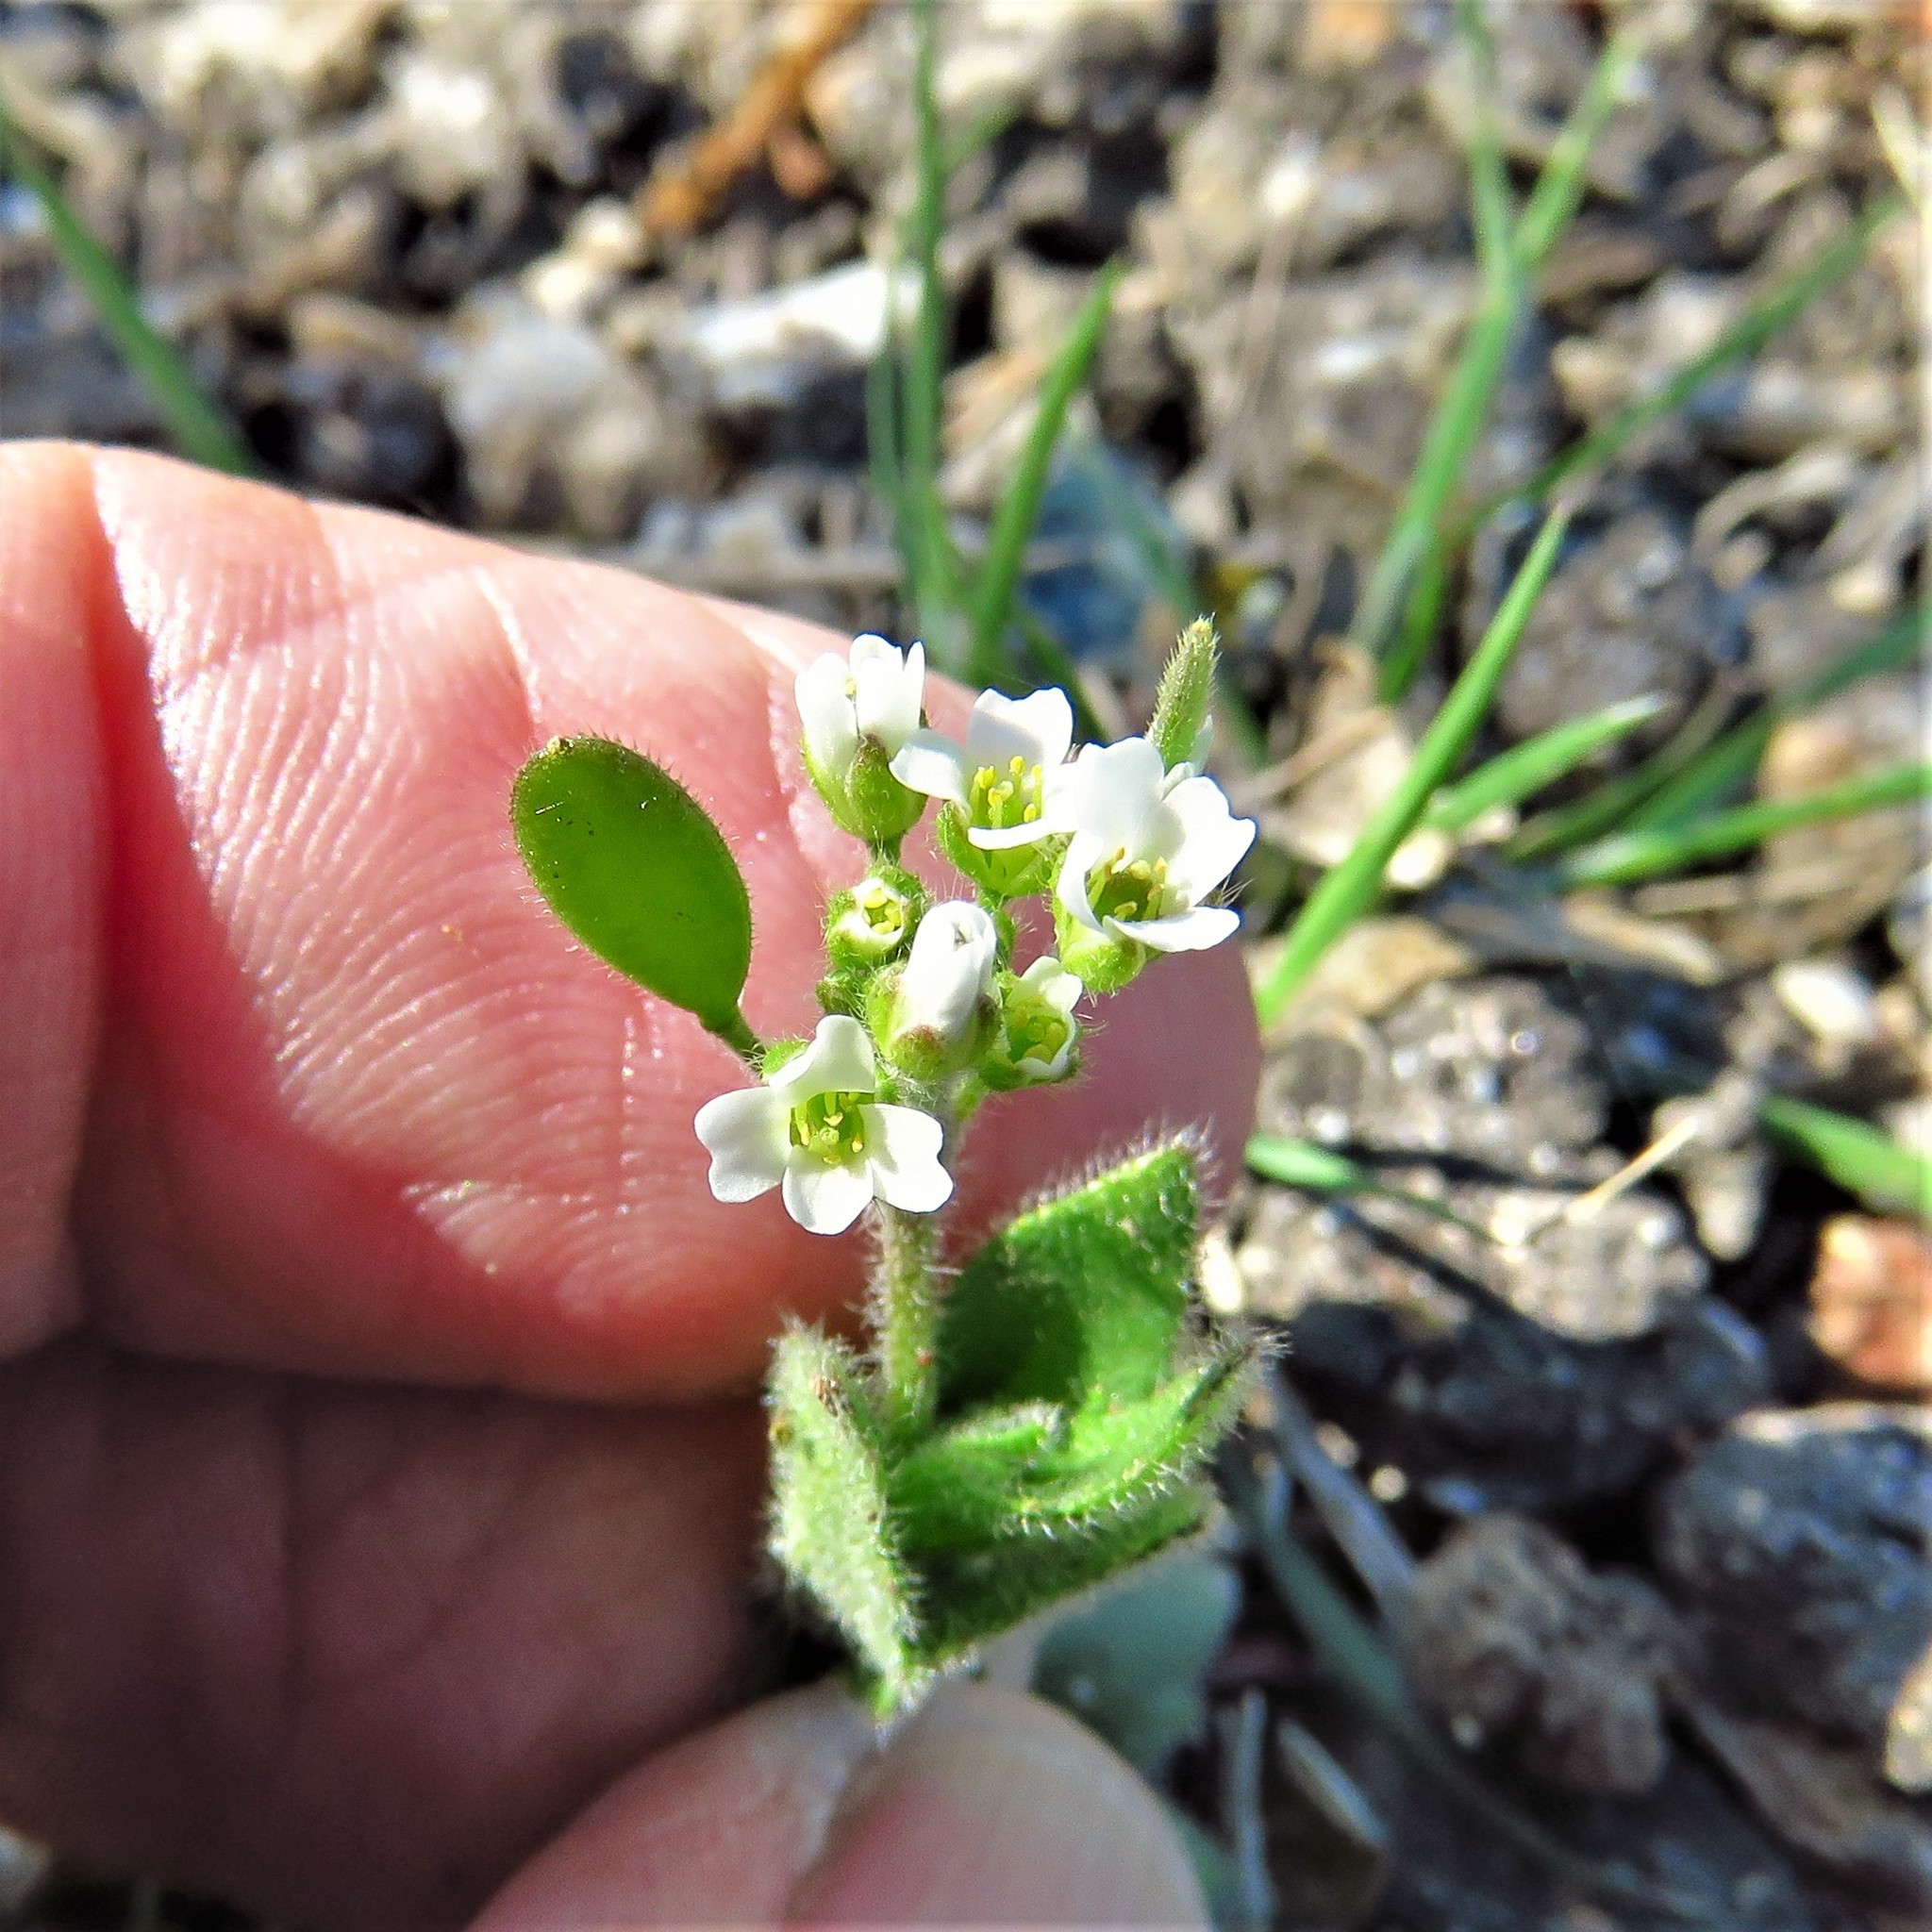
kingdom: Plantae
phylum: Tracheophyta
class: Magnoliopsida
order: Brassicales
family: Brassicaceae
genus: Tomostima
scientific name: Tomostima platycarpa
